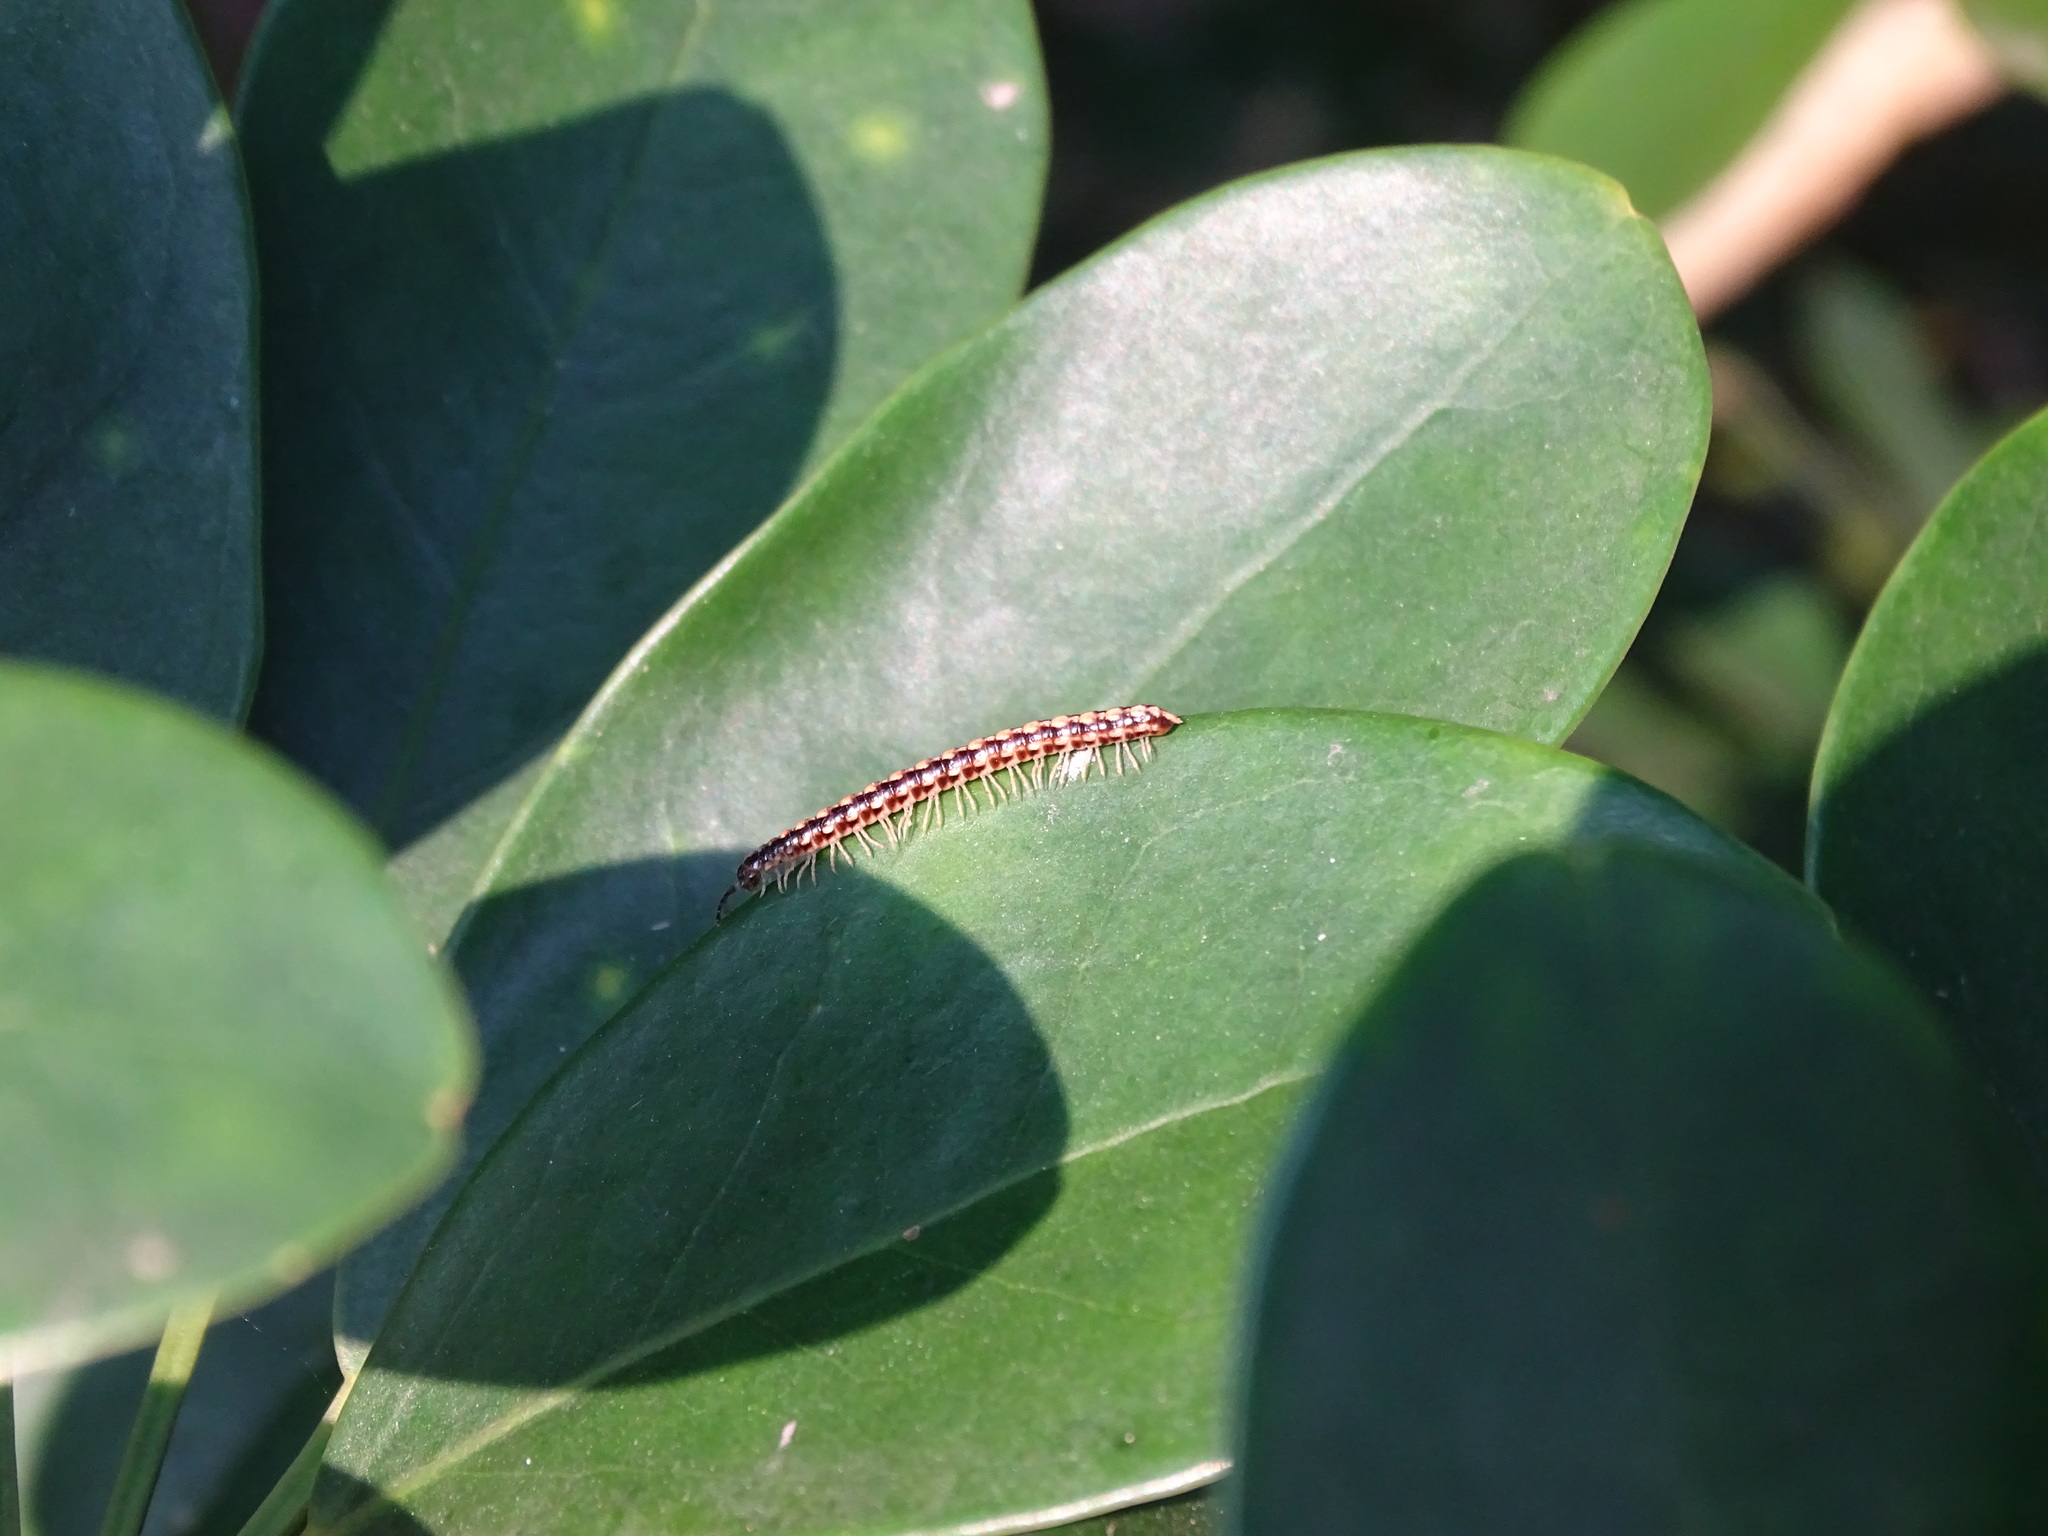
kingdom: Animalia
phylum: Arthropoda
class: Diplopoda
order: Polydesmida
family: Paradoxosomatidae
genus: Helicorthomorpha
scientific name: Helicorthomorpha holstii
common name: Millipede
